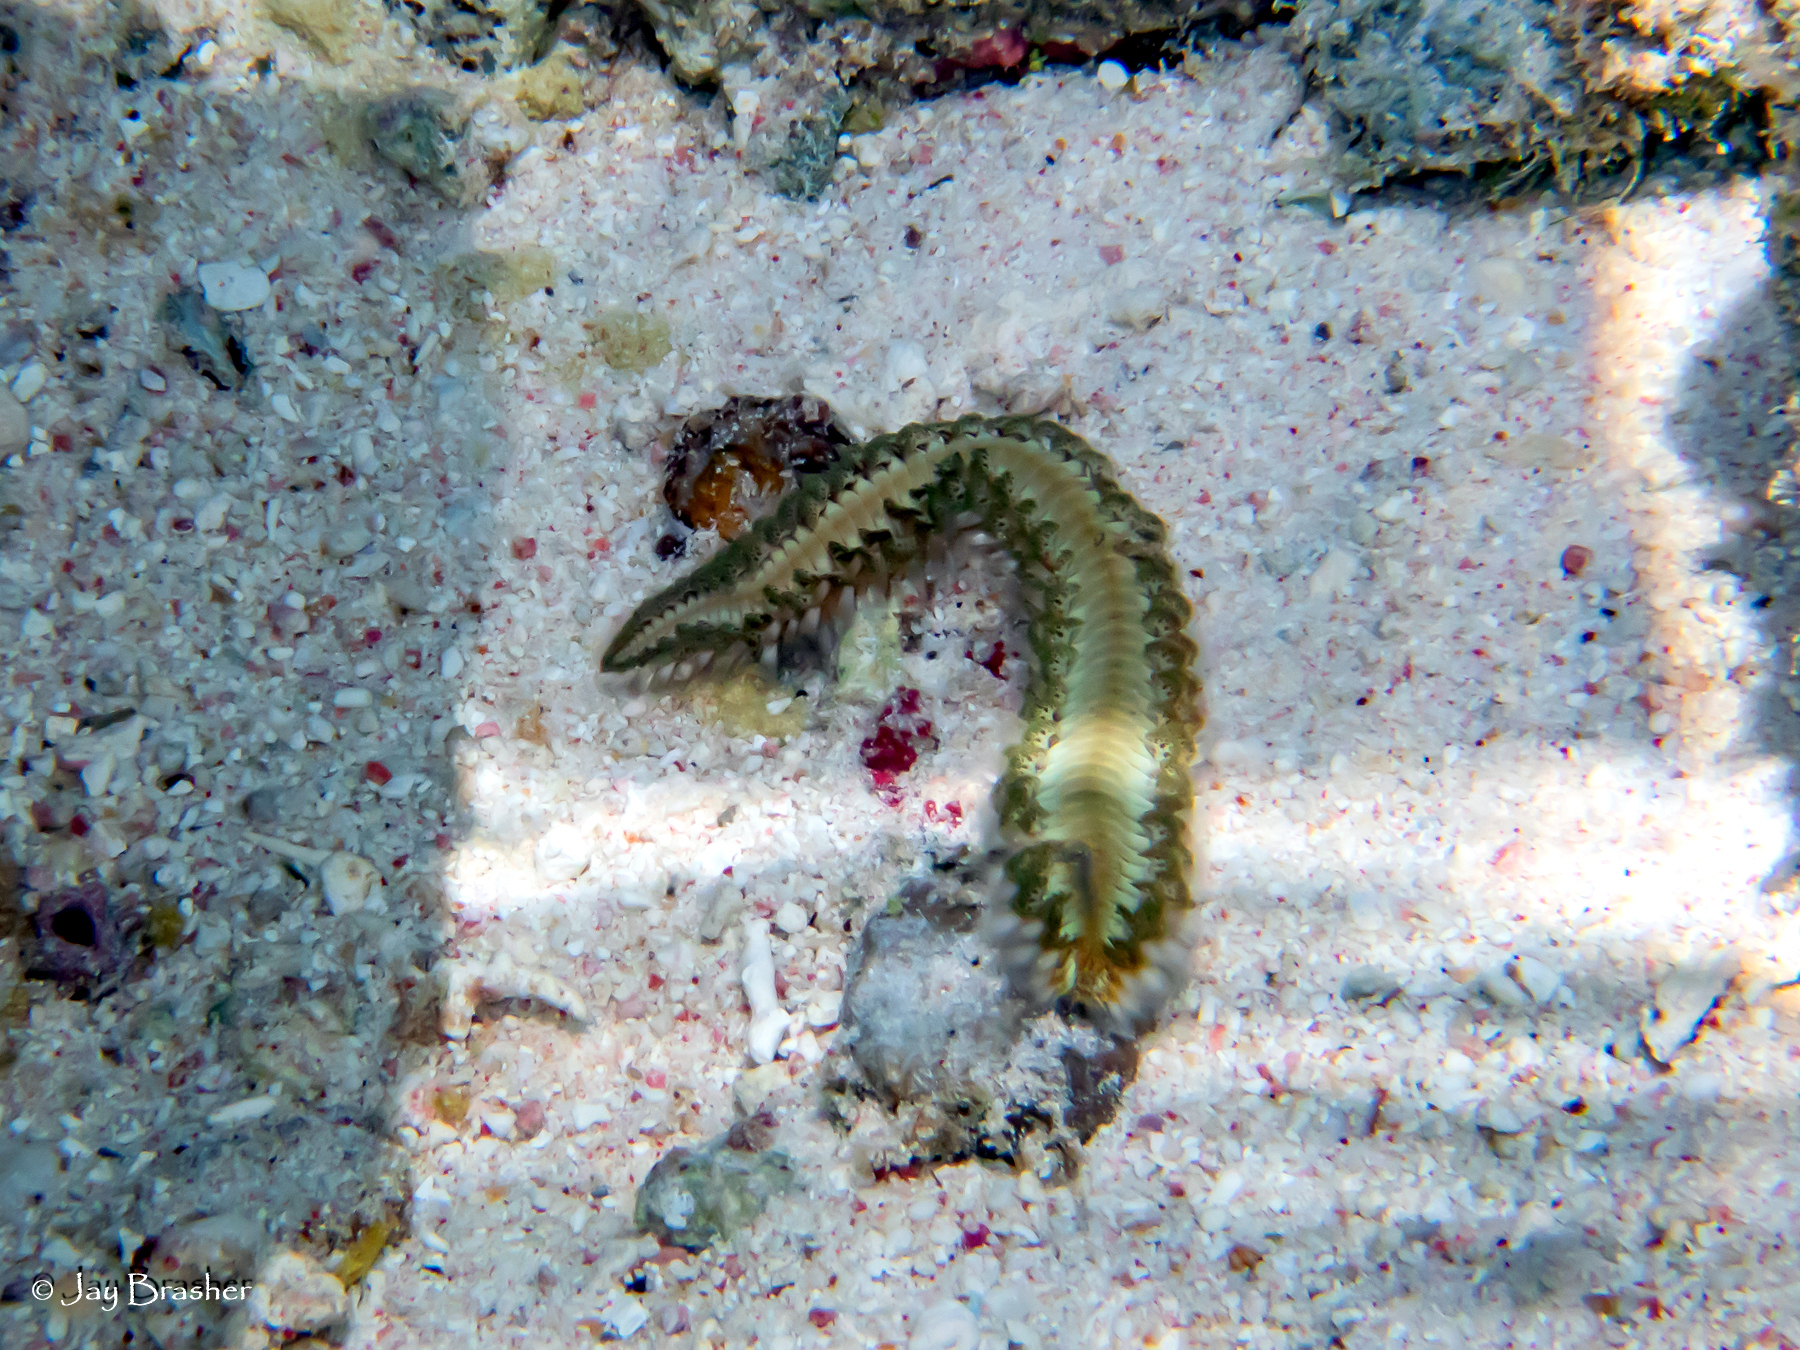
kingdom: Animalia
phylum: Annelida
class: Polychaeta
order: Amphinomida
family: Amphinomidae
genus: Hermodice
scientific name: Hermodice carunculata
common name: Bearded fireworm
